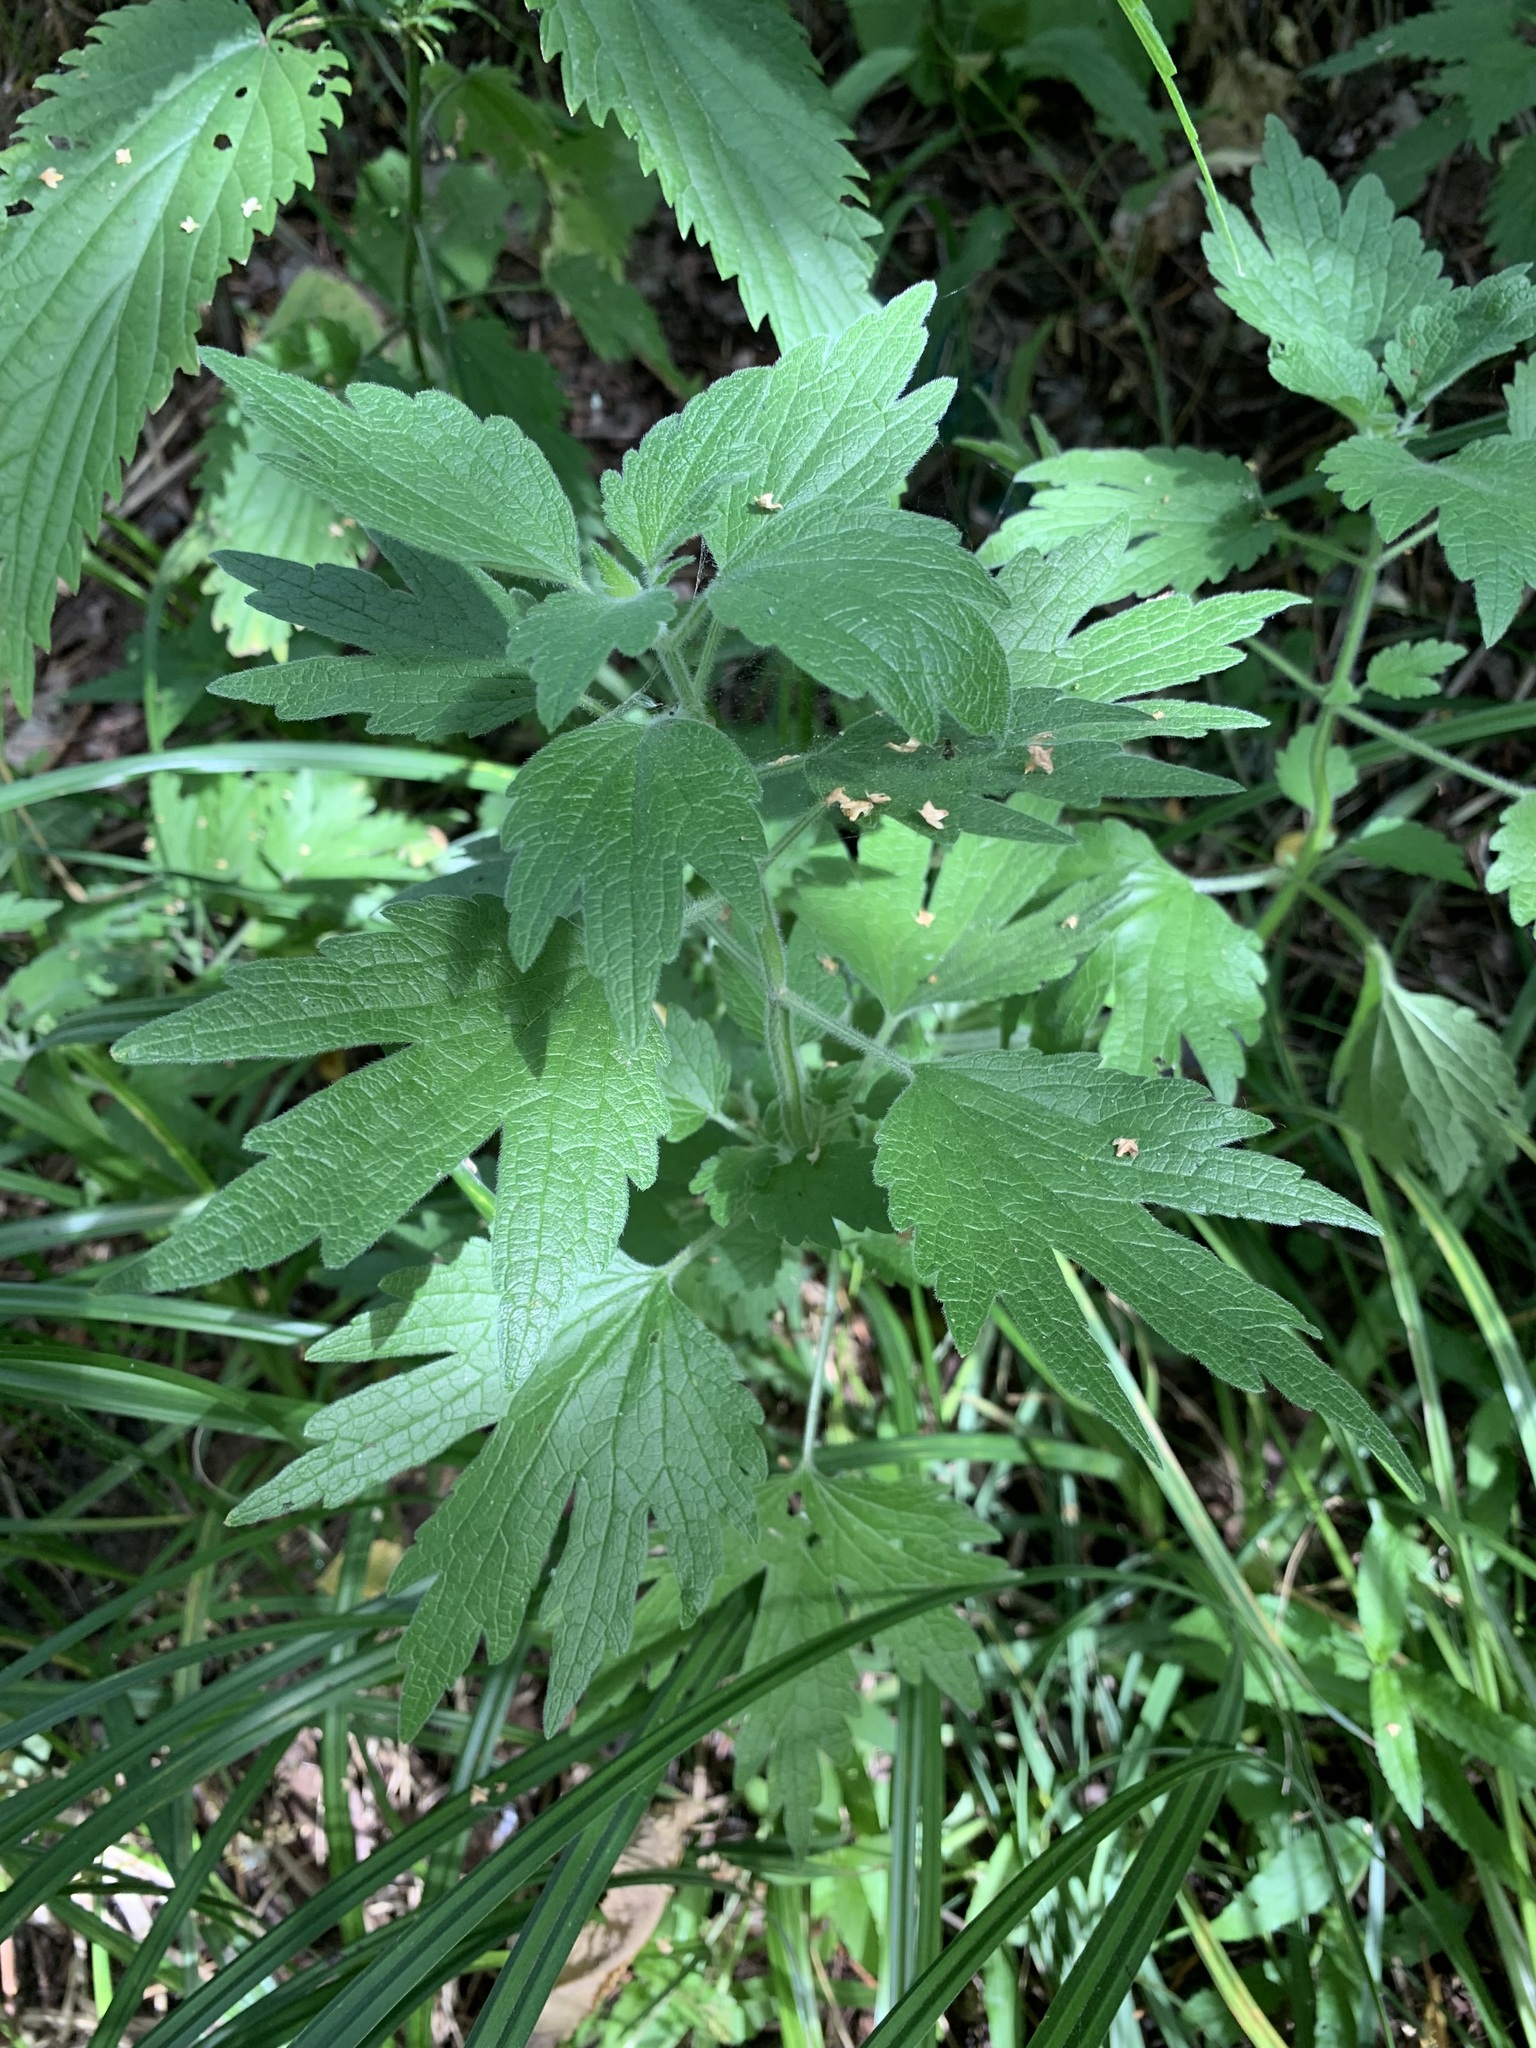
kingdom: Plantae
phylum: Tracheophyta
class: Magnoliopsida
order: Lamiales
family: Lamiaceae
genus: Leonurus
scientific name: Leonurus quinquelobatus
